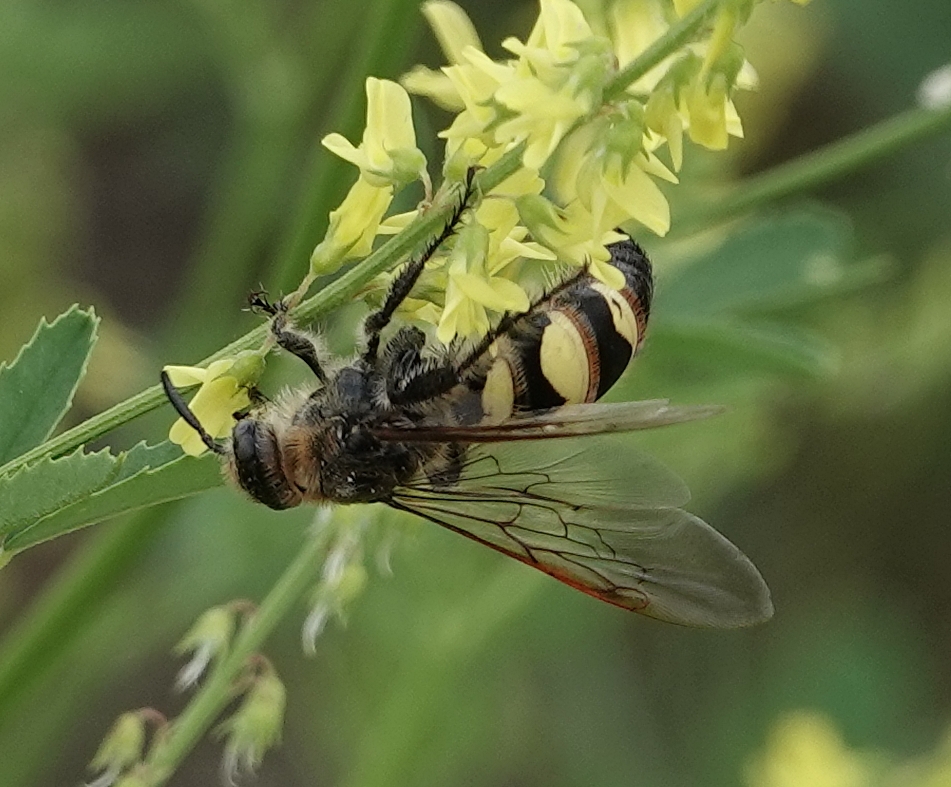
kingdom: Animalia
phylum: Arthropoda
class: Insecta
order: Hymenoptera
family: Scoliidae
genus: Dielis
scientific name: Dielis
